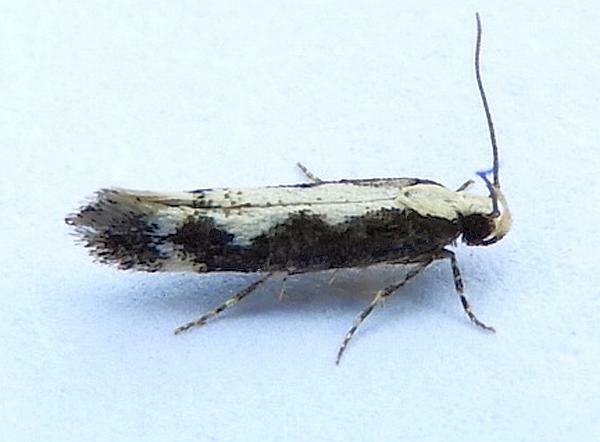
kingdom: Animalia
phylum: Arthropoda
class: Insecta
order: Lepidoptera
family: Gelechiidae
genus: Agnippe
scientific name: Agnippe prunifoliella
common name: Skunk twirler
